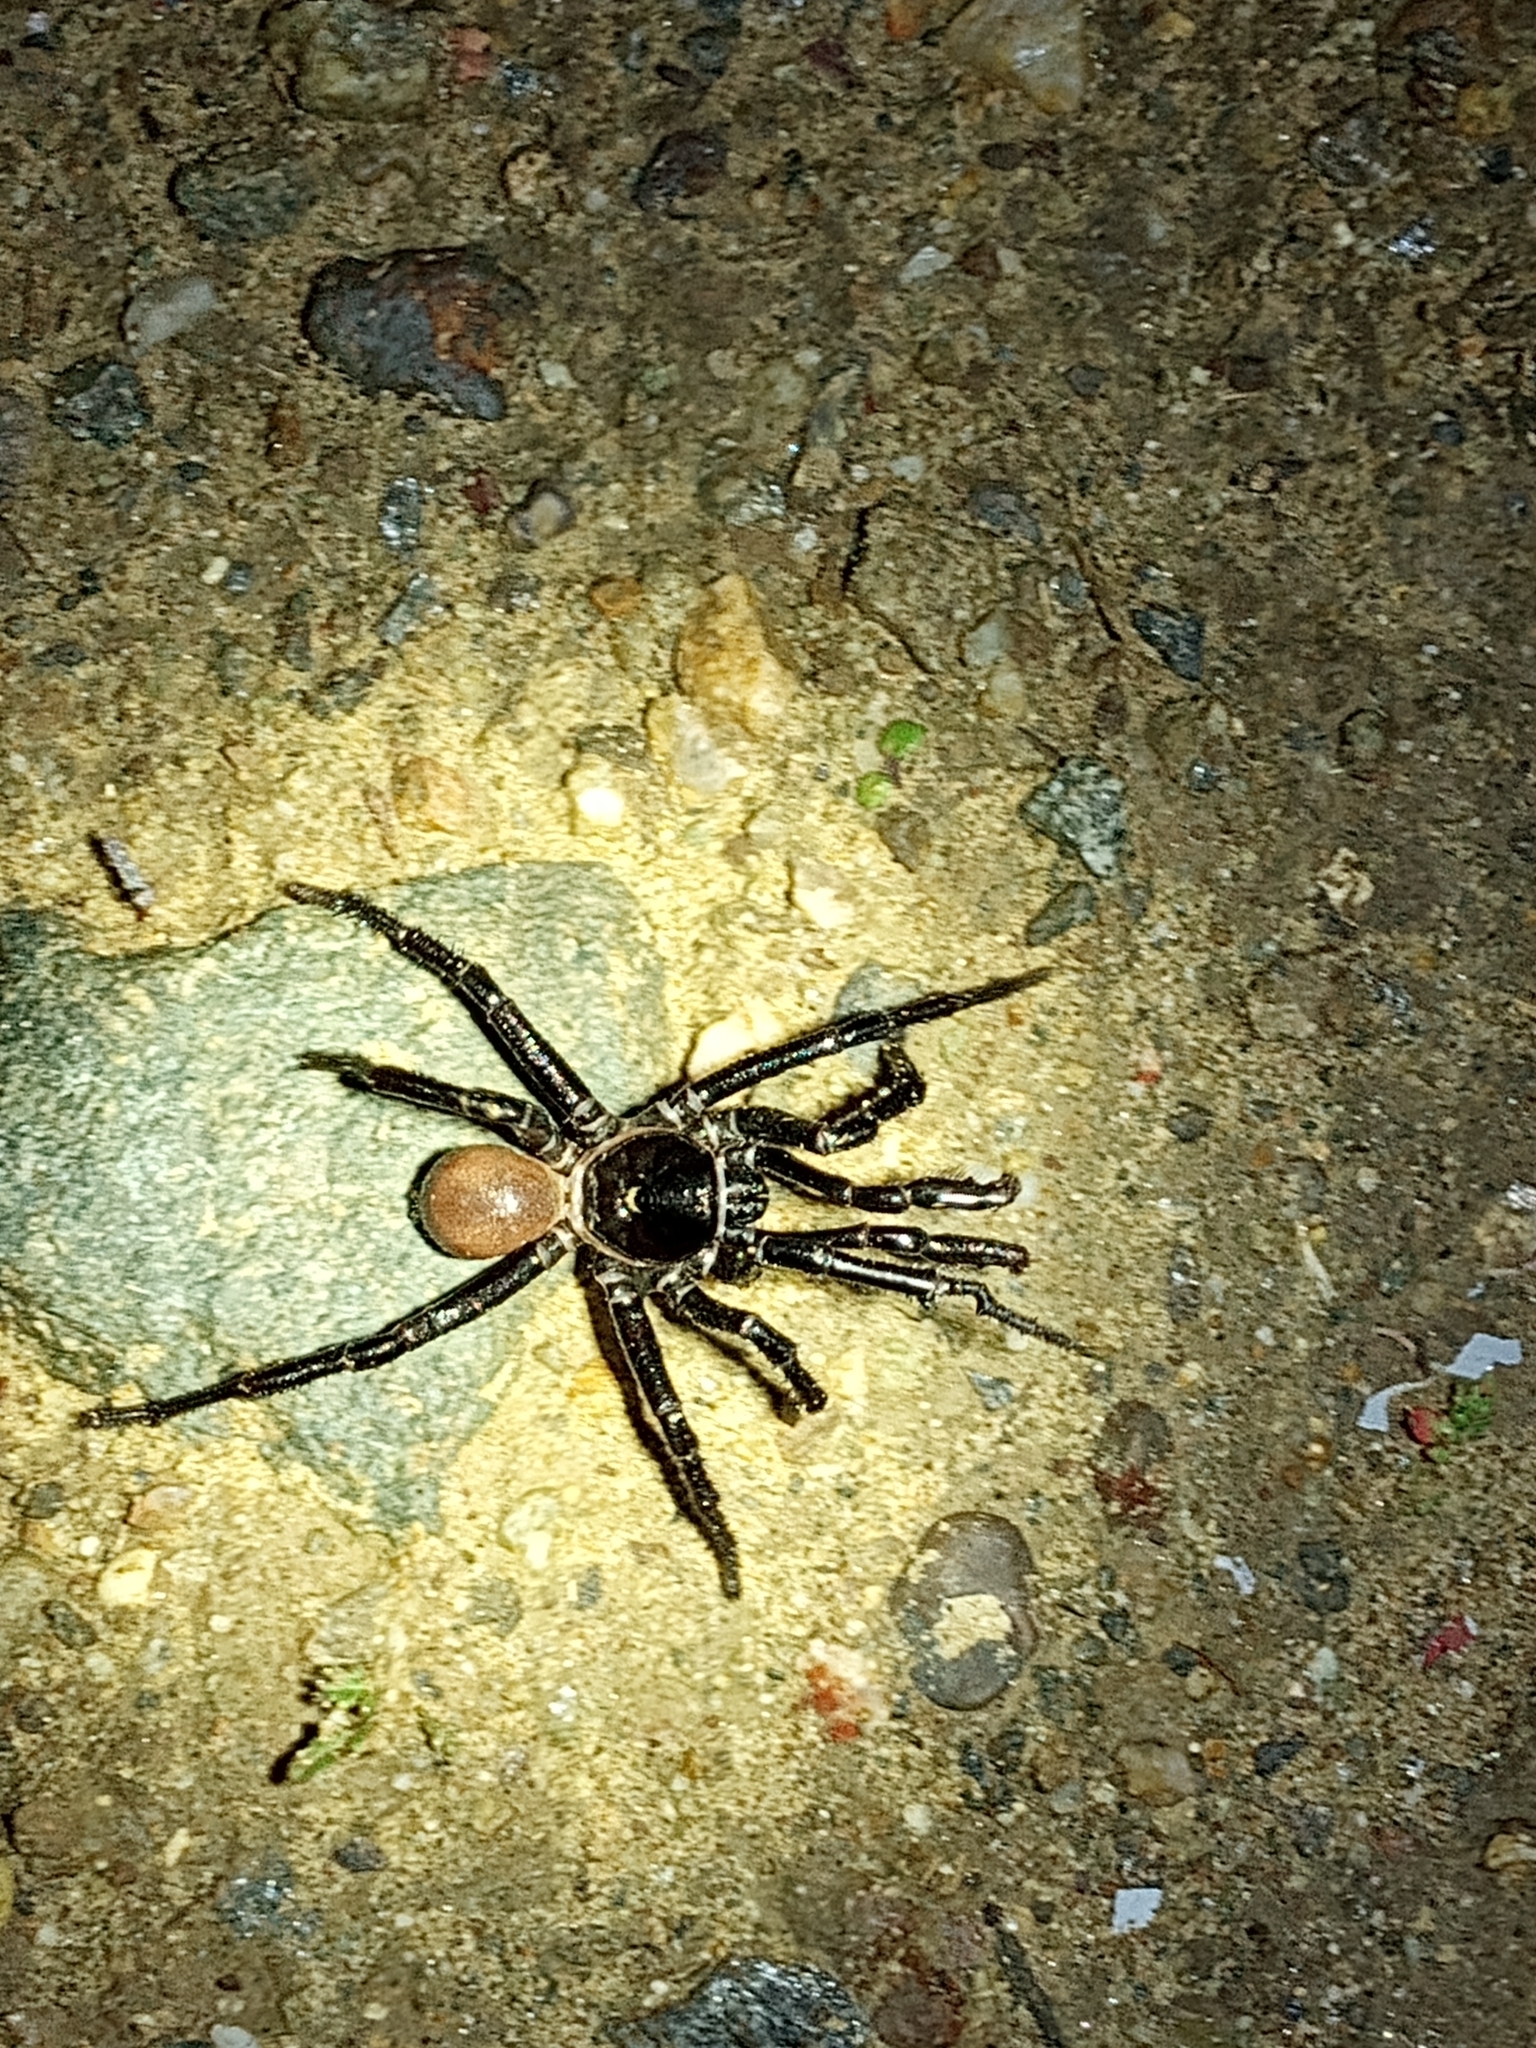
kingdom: Animalia
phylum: Arthropoda
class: Arachnida
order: Araneae
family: Halonoproctidae
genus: Bothriocyrtum
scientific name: Bothriocyrtum californicum
